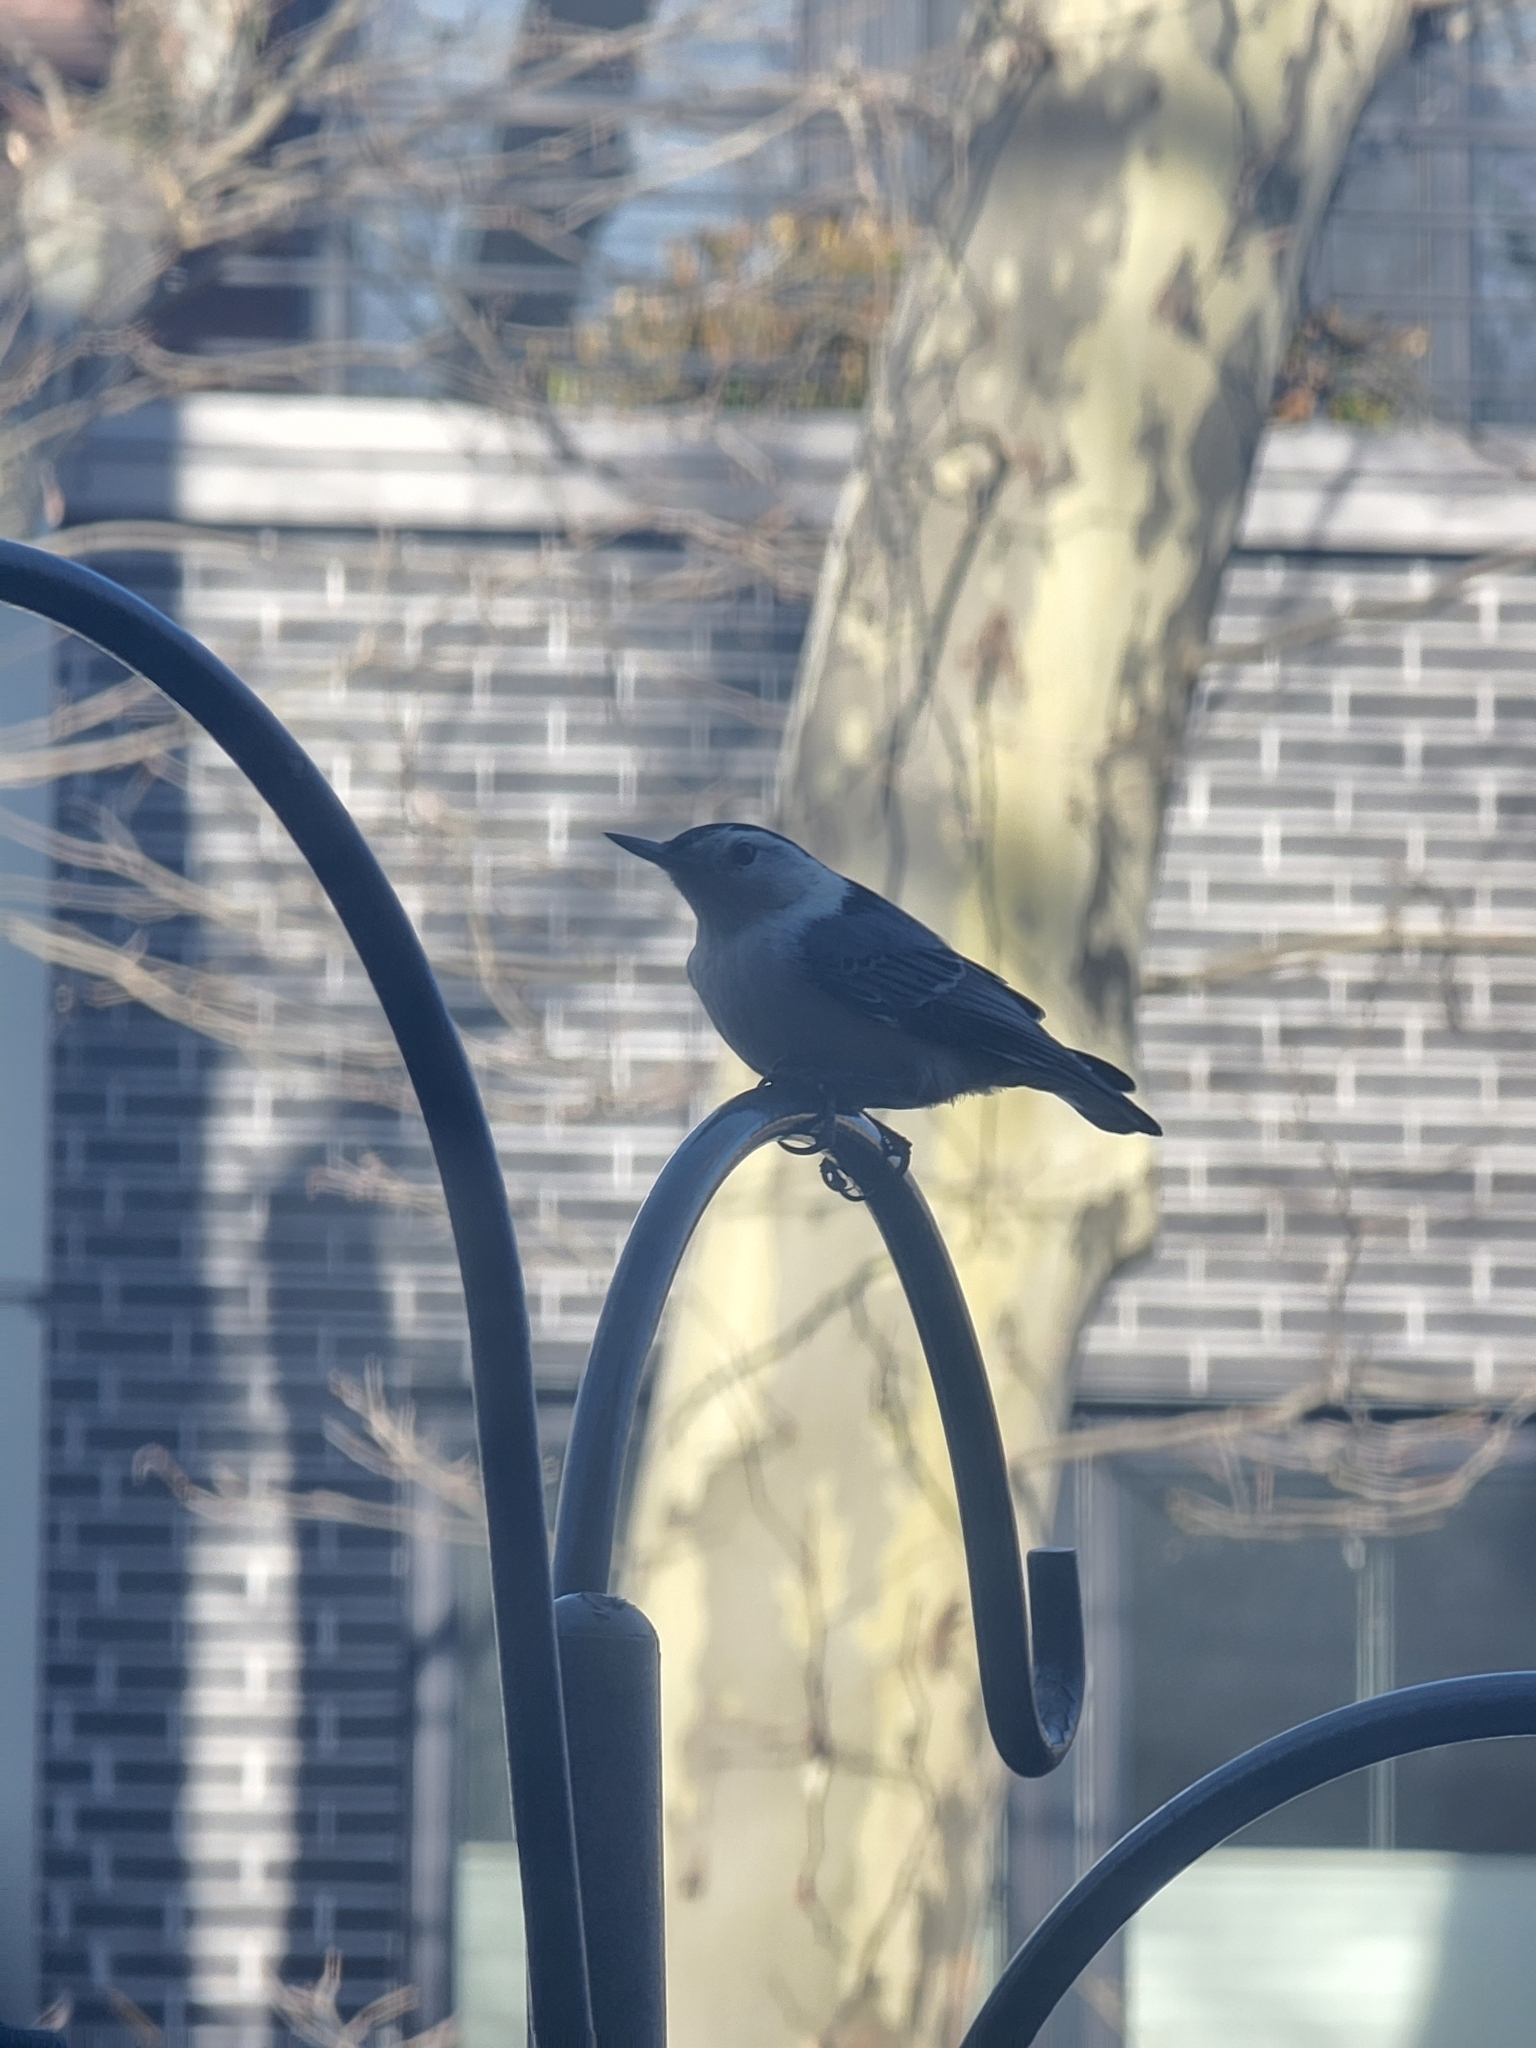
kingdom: Animalia
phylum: Chordata
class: Aves
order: Passeriformes
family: Sittidae
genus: Sitta
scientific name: Sitta carolinensis
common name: White-breasted nuthatch
